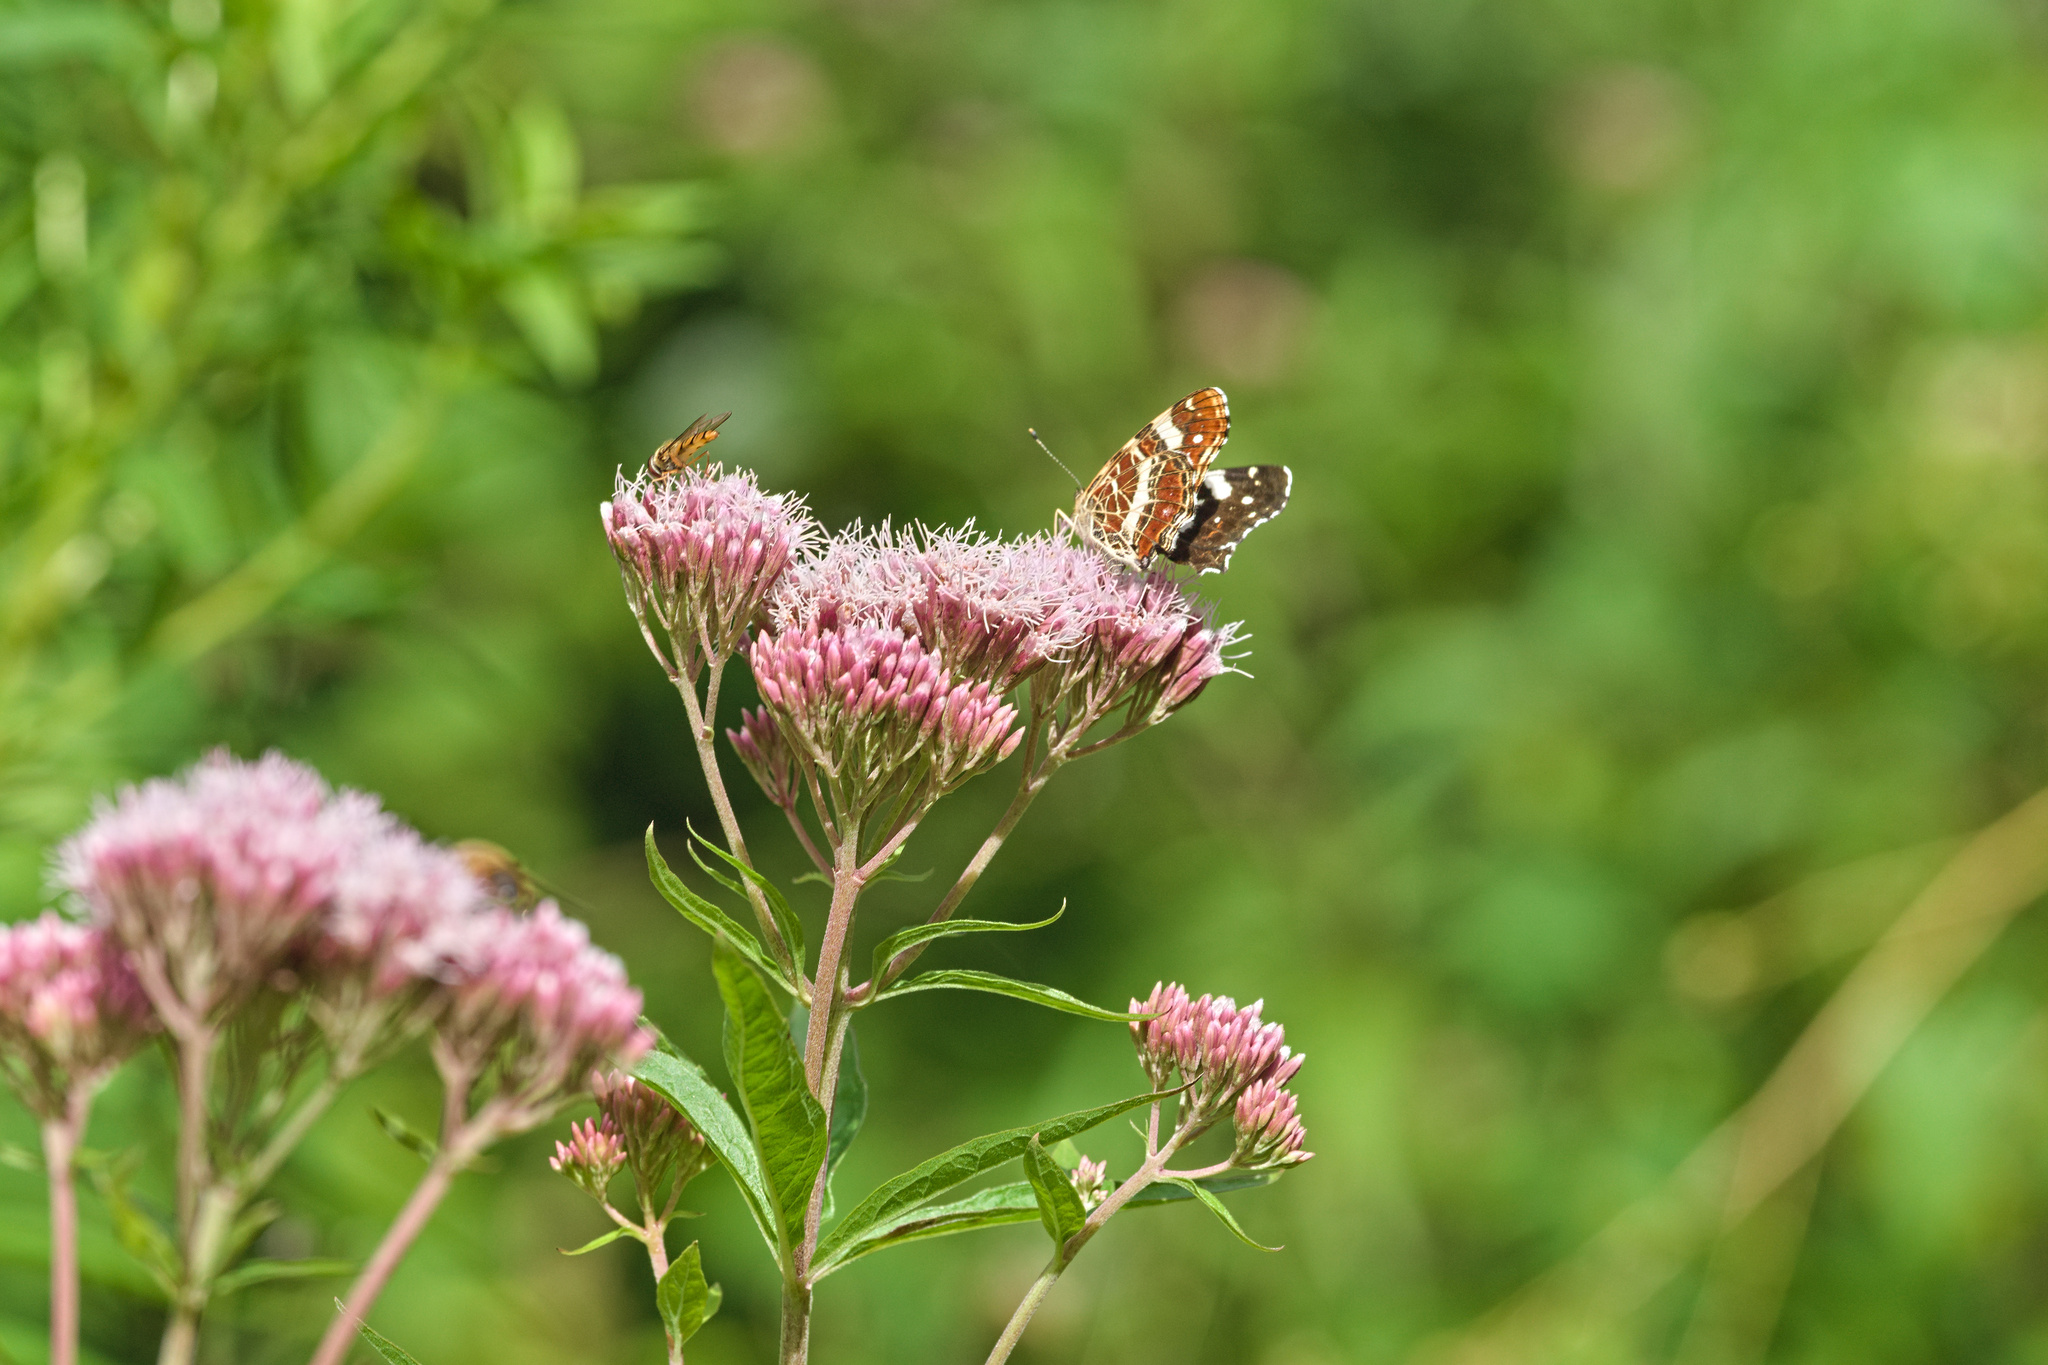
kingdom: Animalia
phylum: Arthropoda
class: Insecta
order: Lepidoptera
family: Nymphalidae
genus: Araschnia
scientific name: Araschnia levana
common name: Map butterfly
